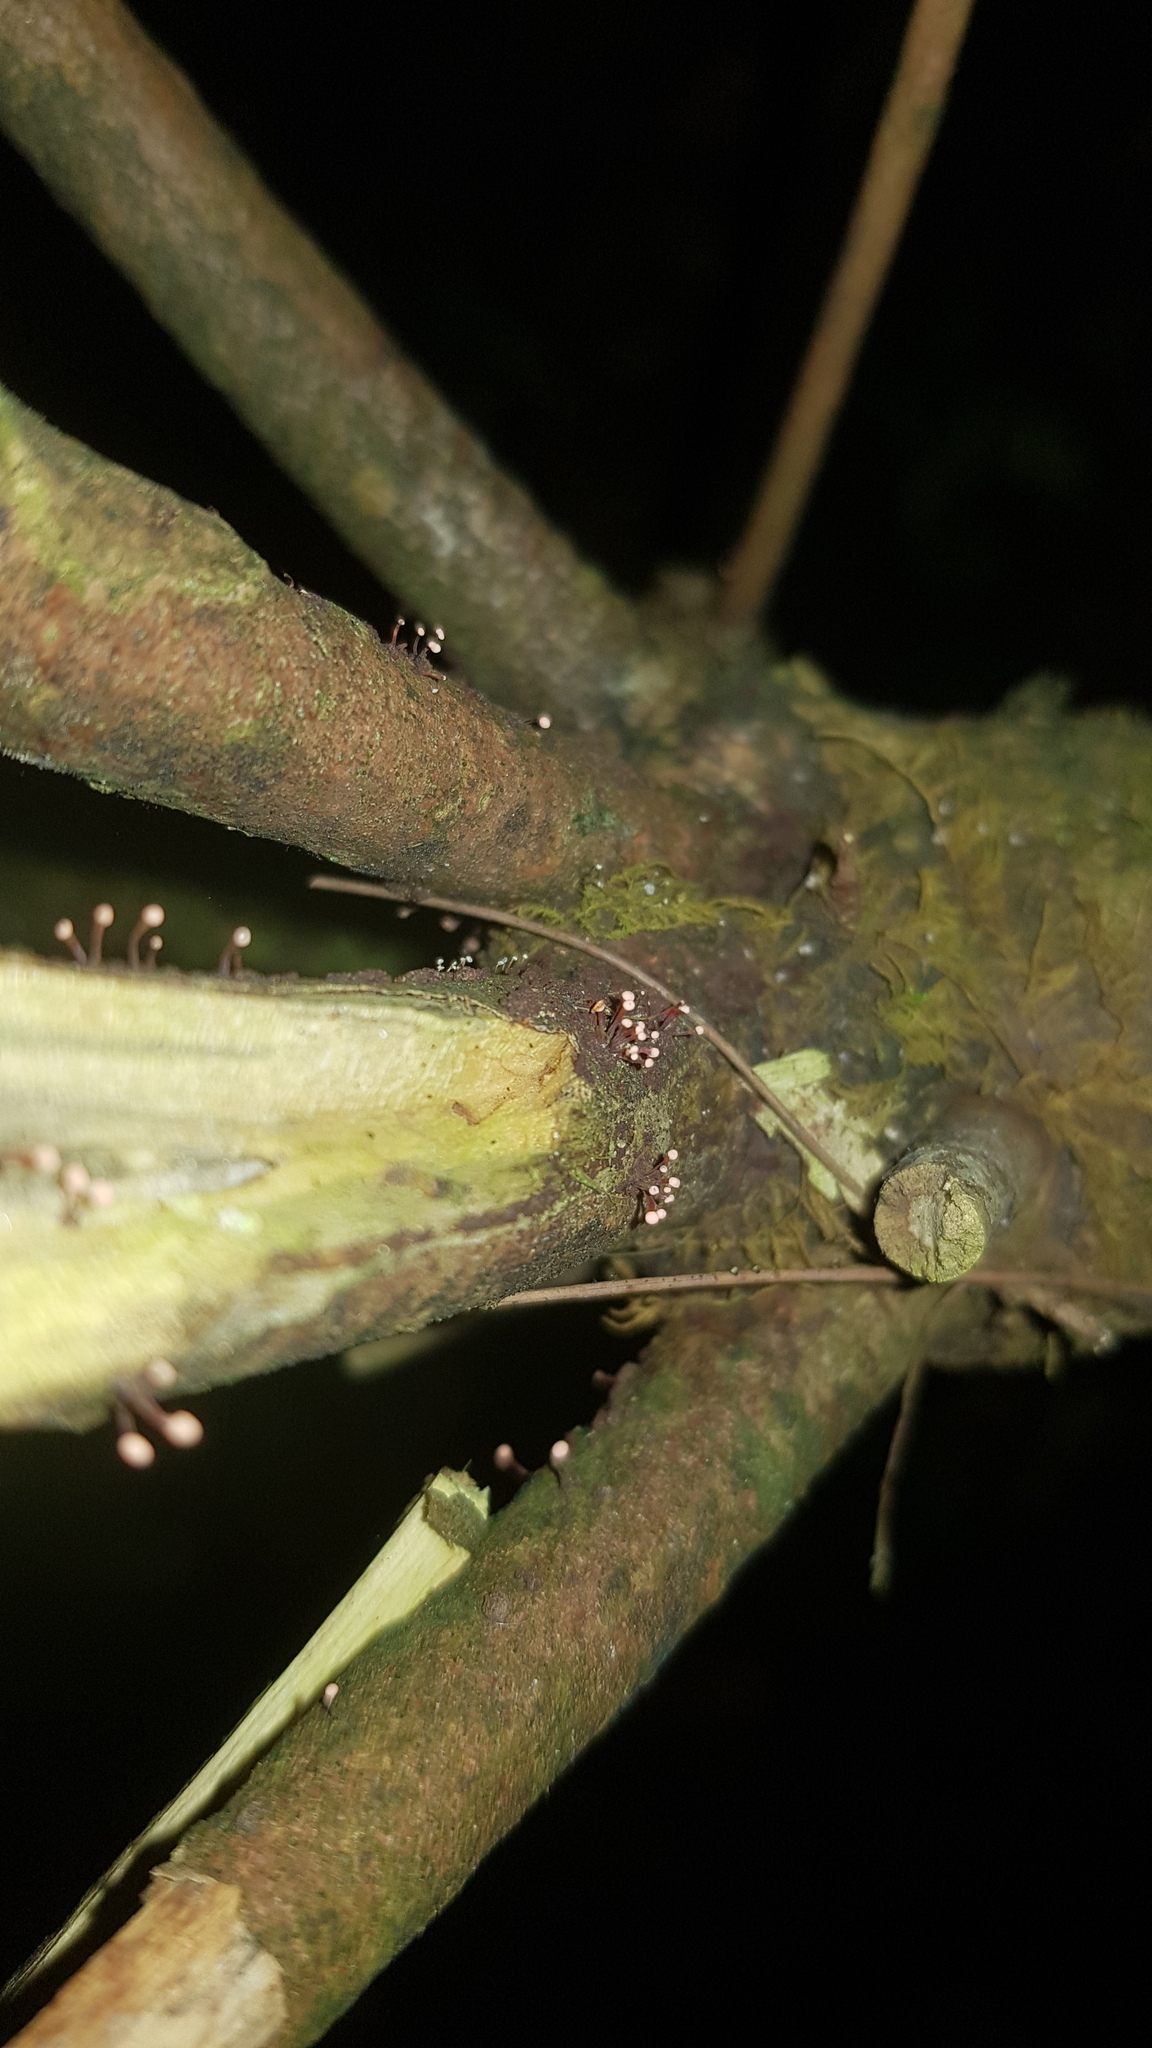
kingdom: Fungi
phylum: Ascomycota
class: Sordariomycetes
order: Hypocreales
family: Nectriaceae
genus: Nectria
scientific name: Nectria pseudotrichia
